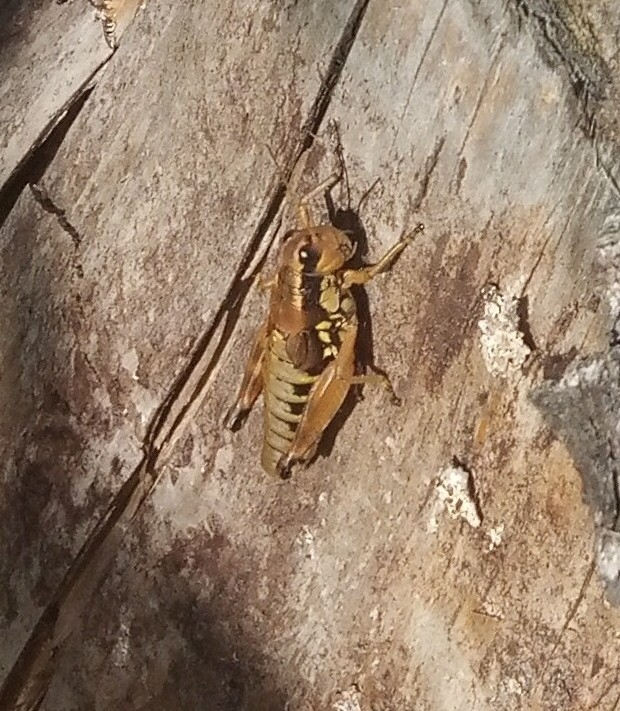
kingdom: Animalia
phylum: Arthropoda
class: Insecta
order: Orthoptera
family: Acrididae
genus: Podisma
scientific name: Podisma pedestris
